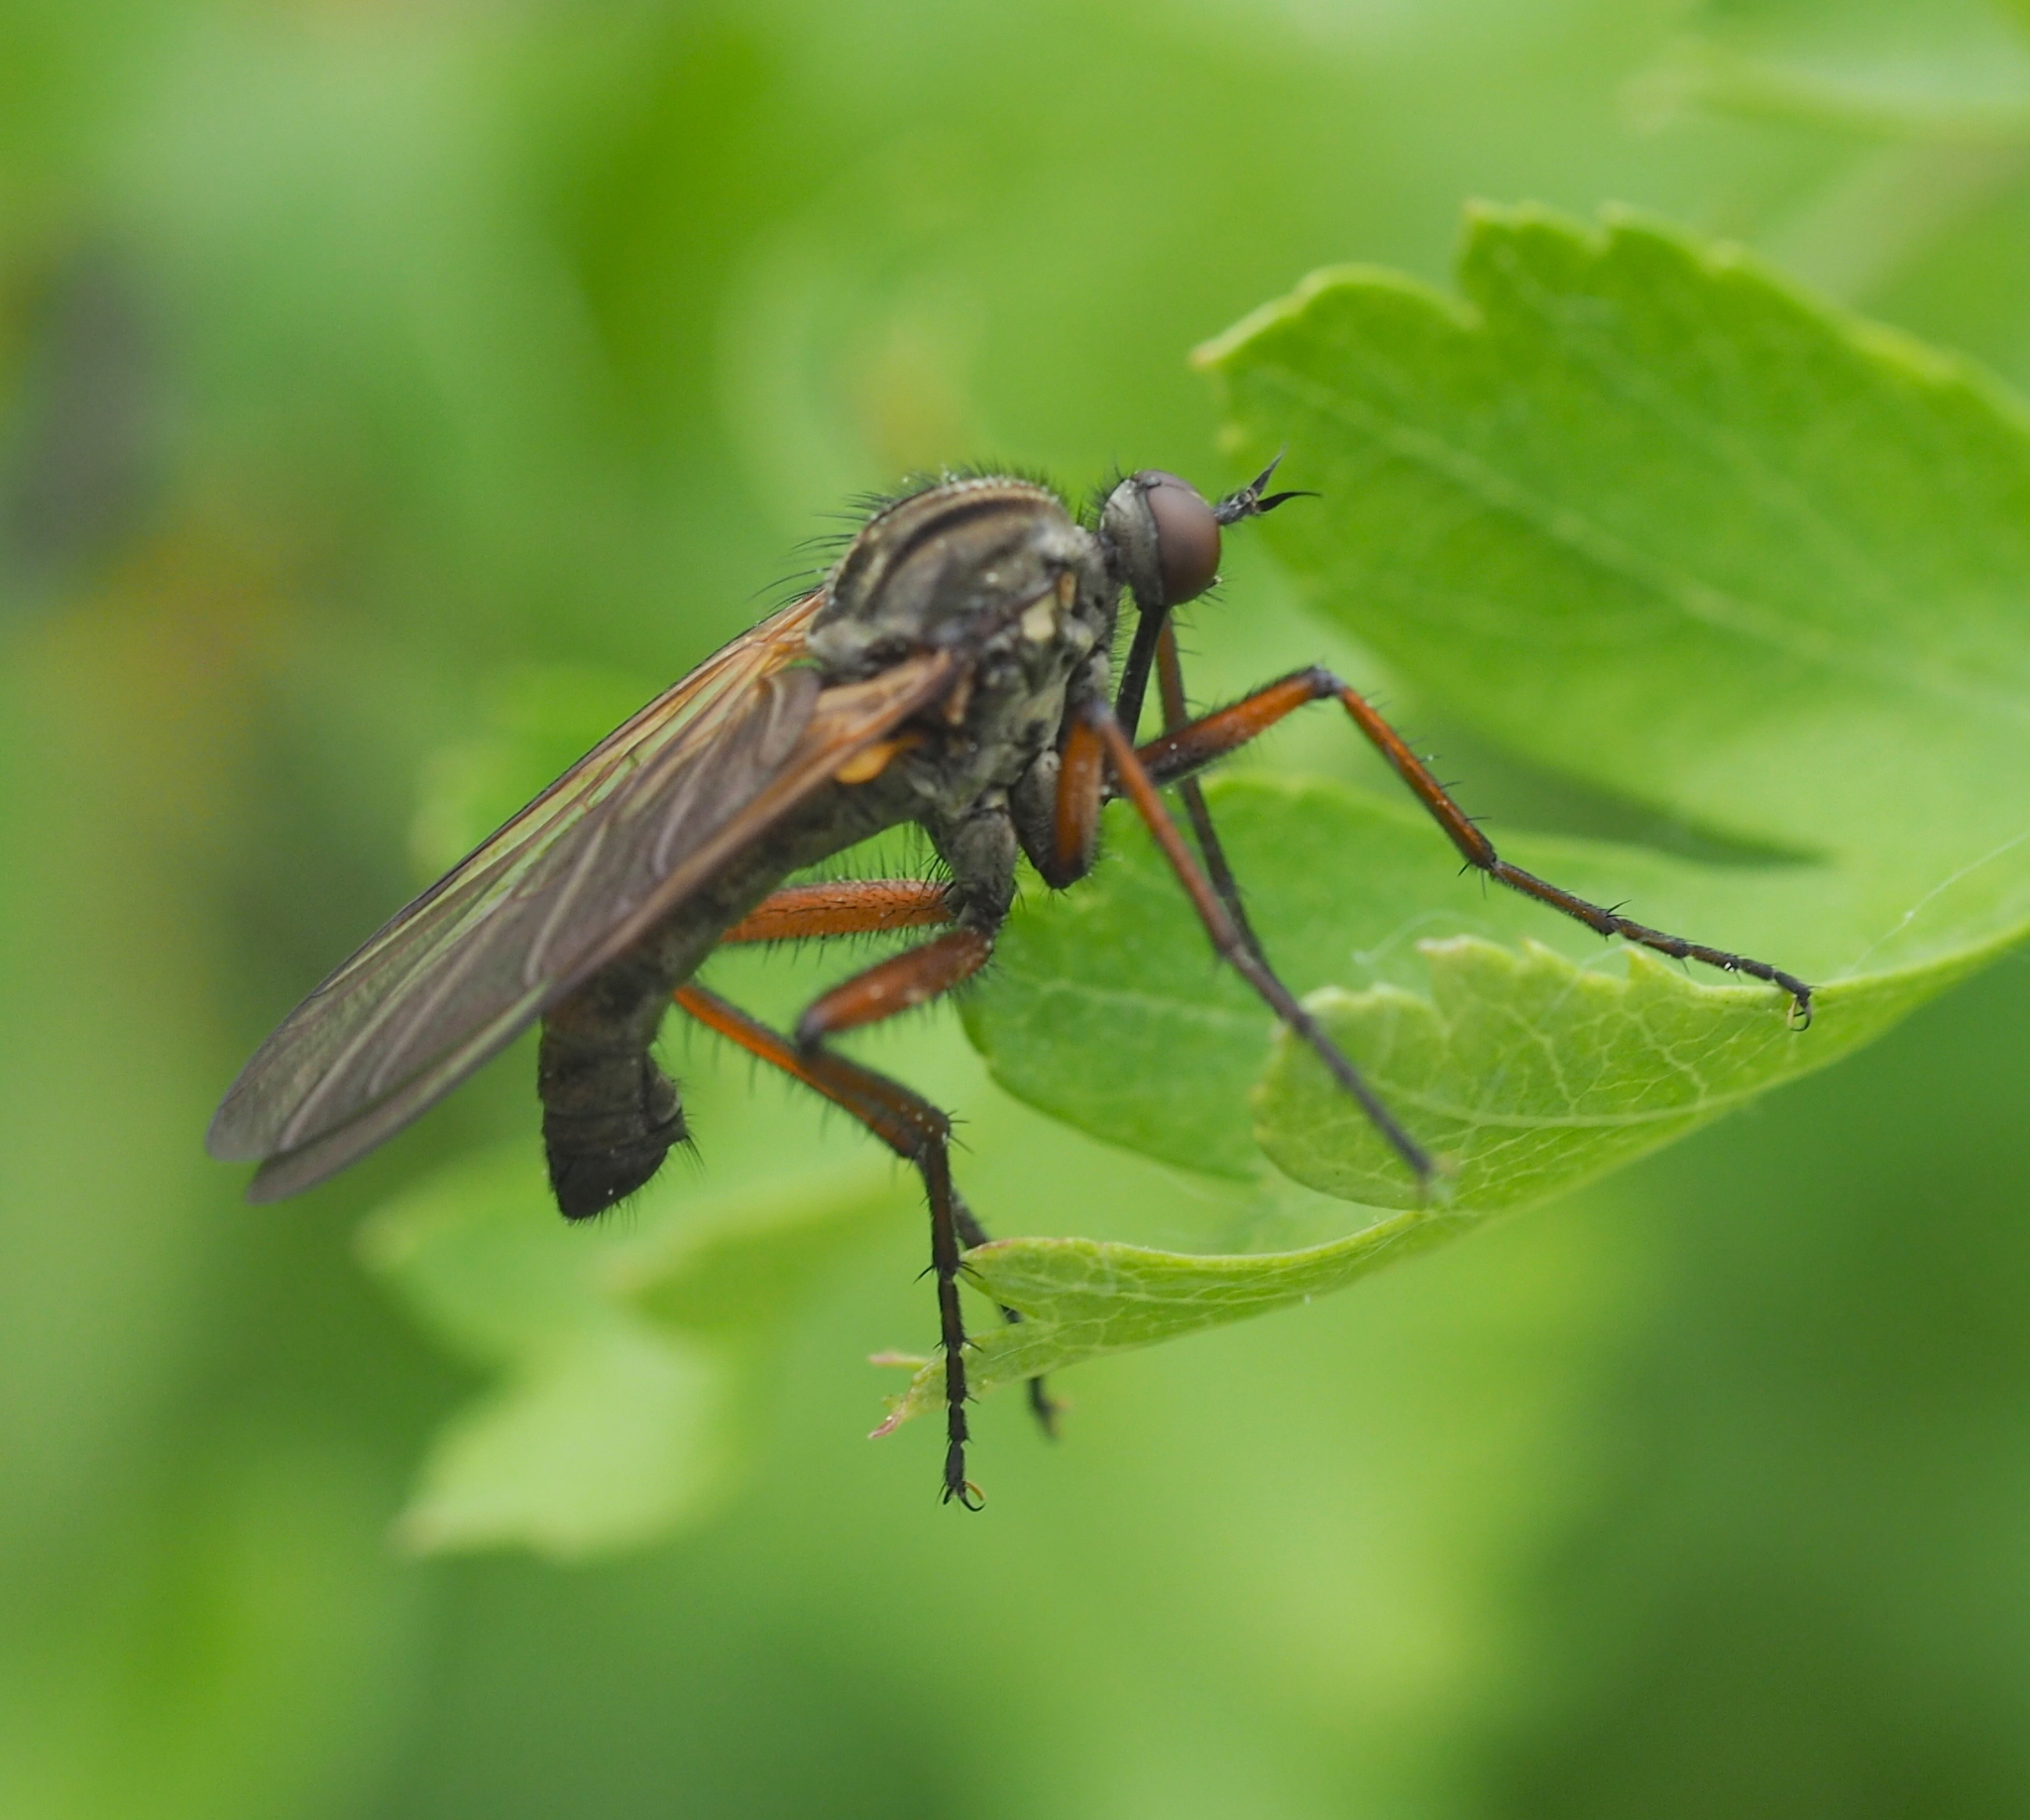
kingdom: Animalia
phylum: Arthropoda
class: Insecta
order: Diptera
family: Empididae
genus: Empis
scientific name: Empis tessellata
